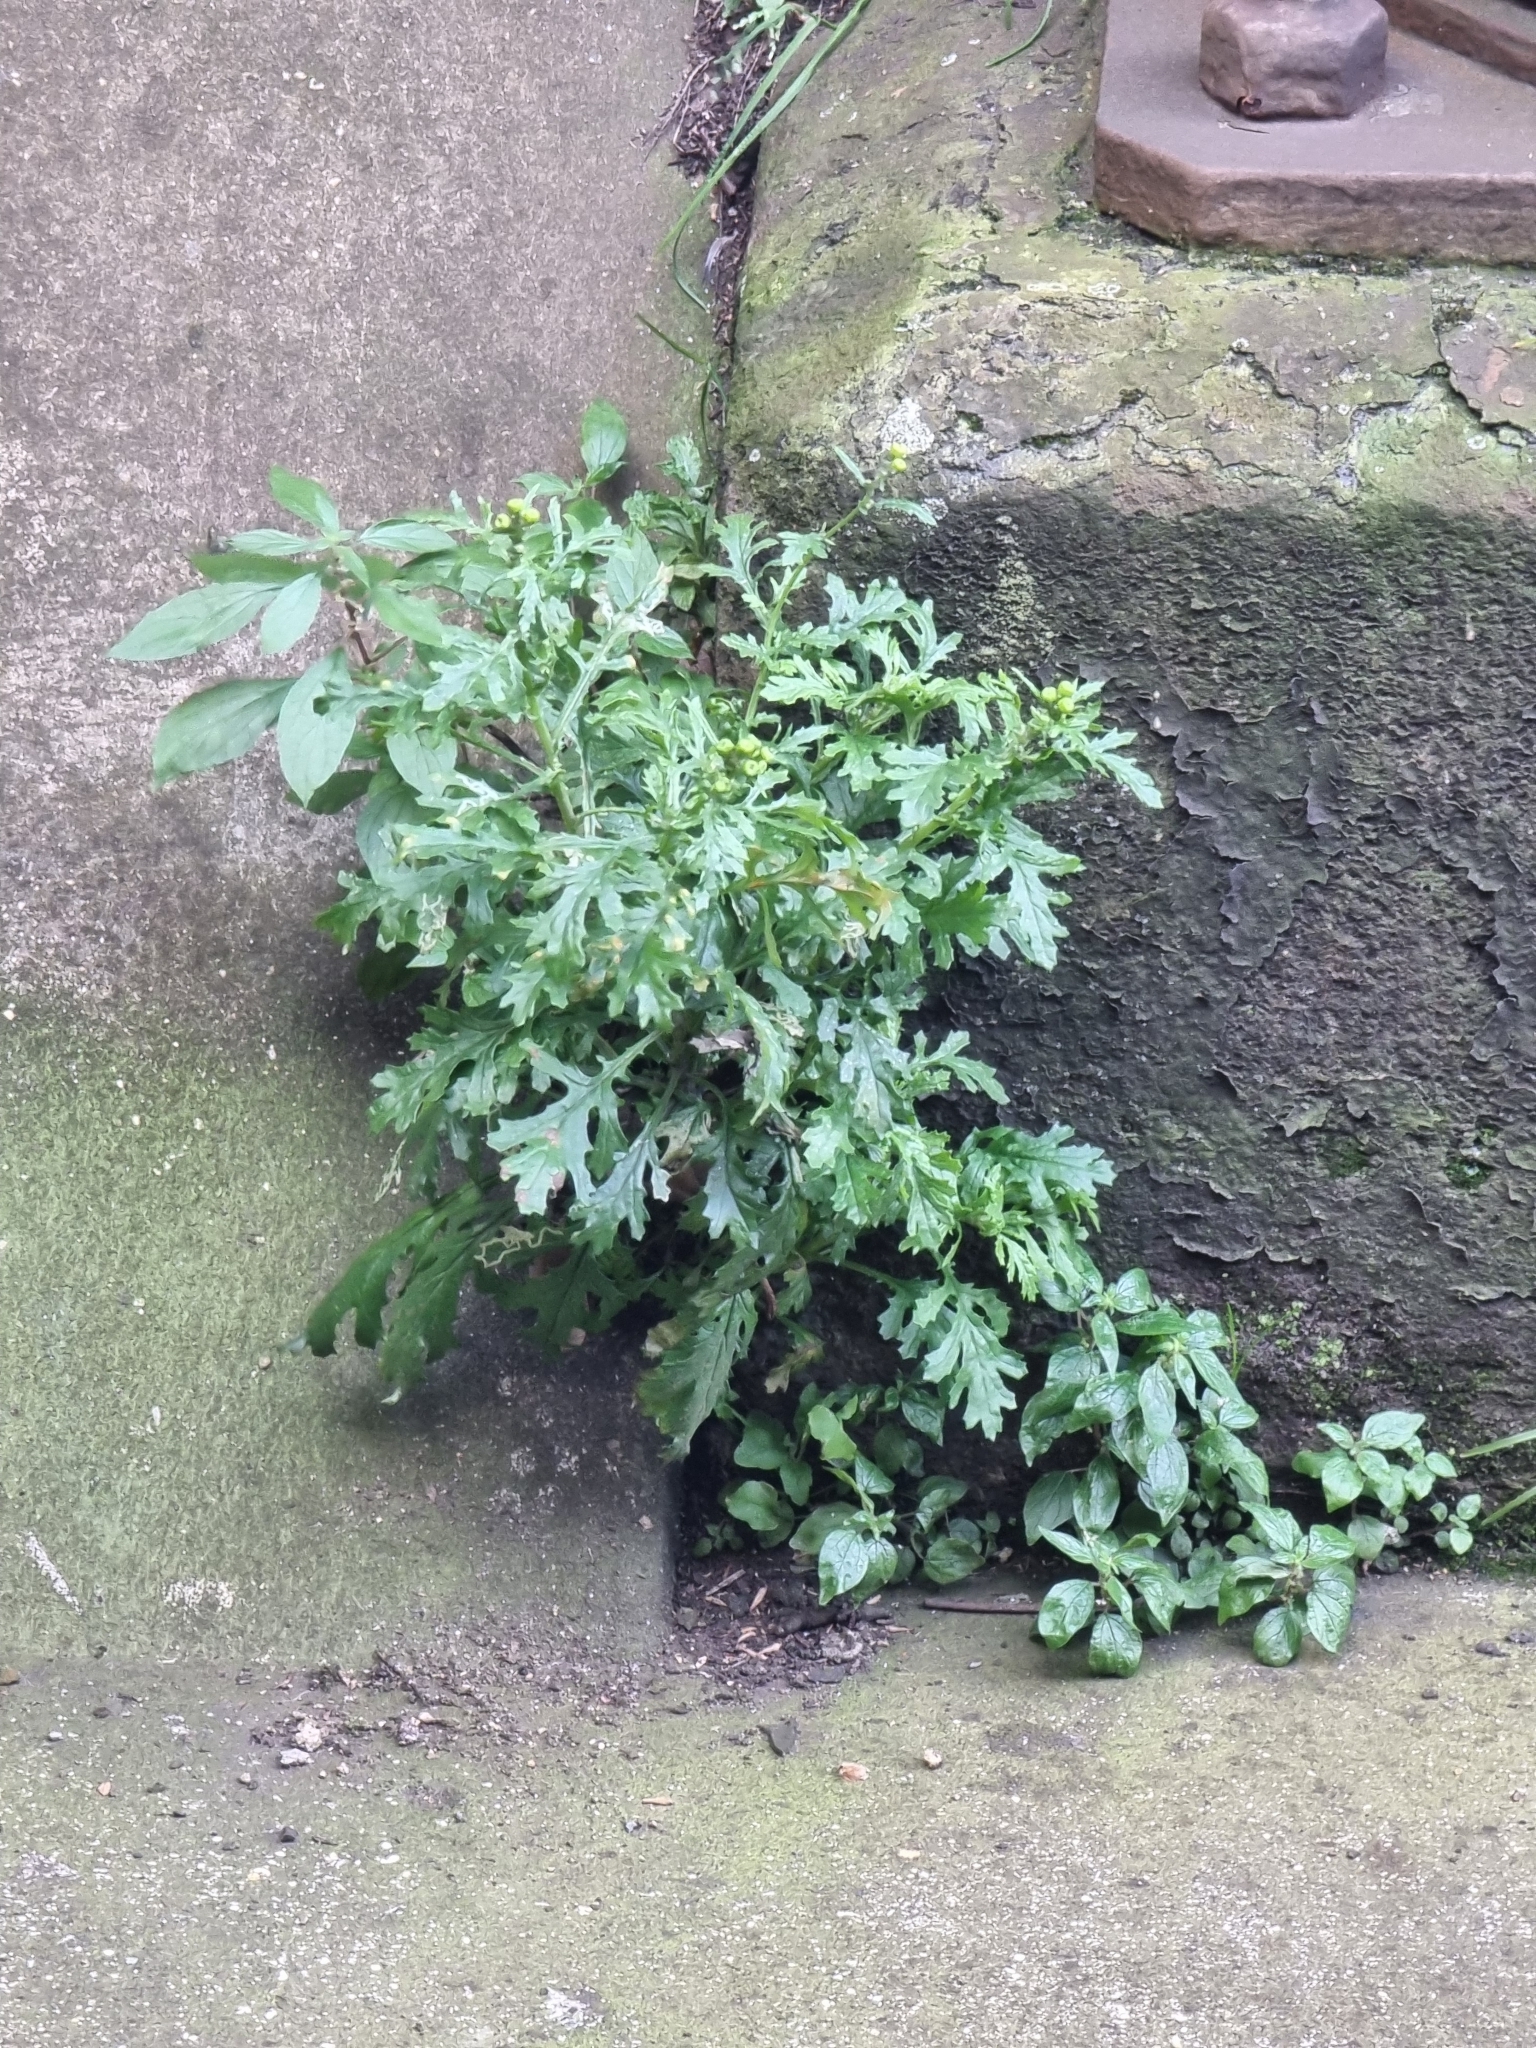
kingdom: Plantae
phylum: Tracheophyta
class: Magnoliopsida
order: Asterales
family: Asteraceae
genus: Senecio
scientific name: Senecio squalidus
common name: Oxford ragwort
